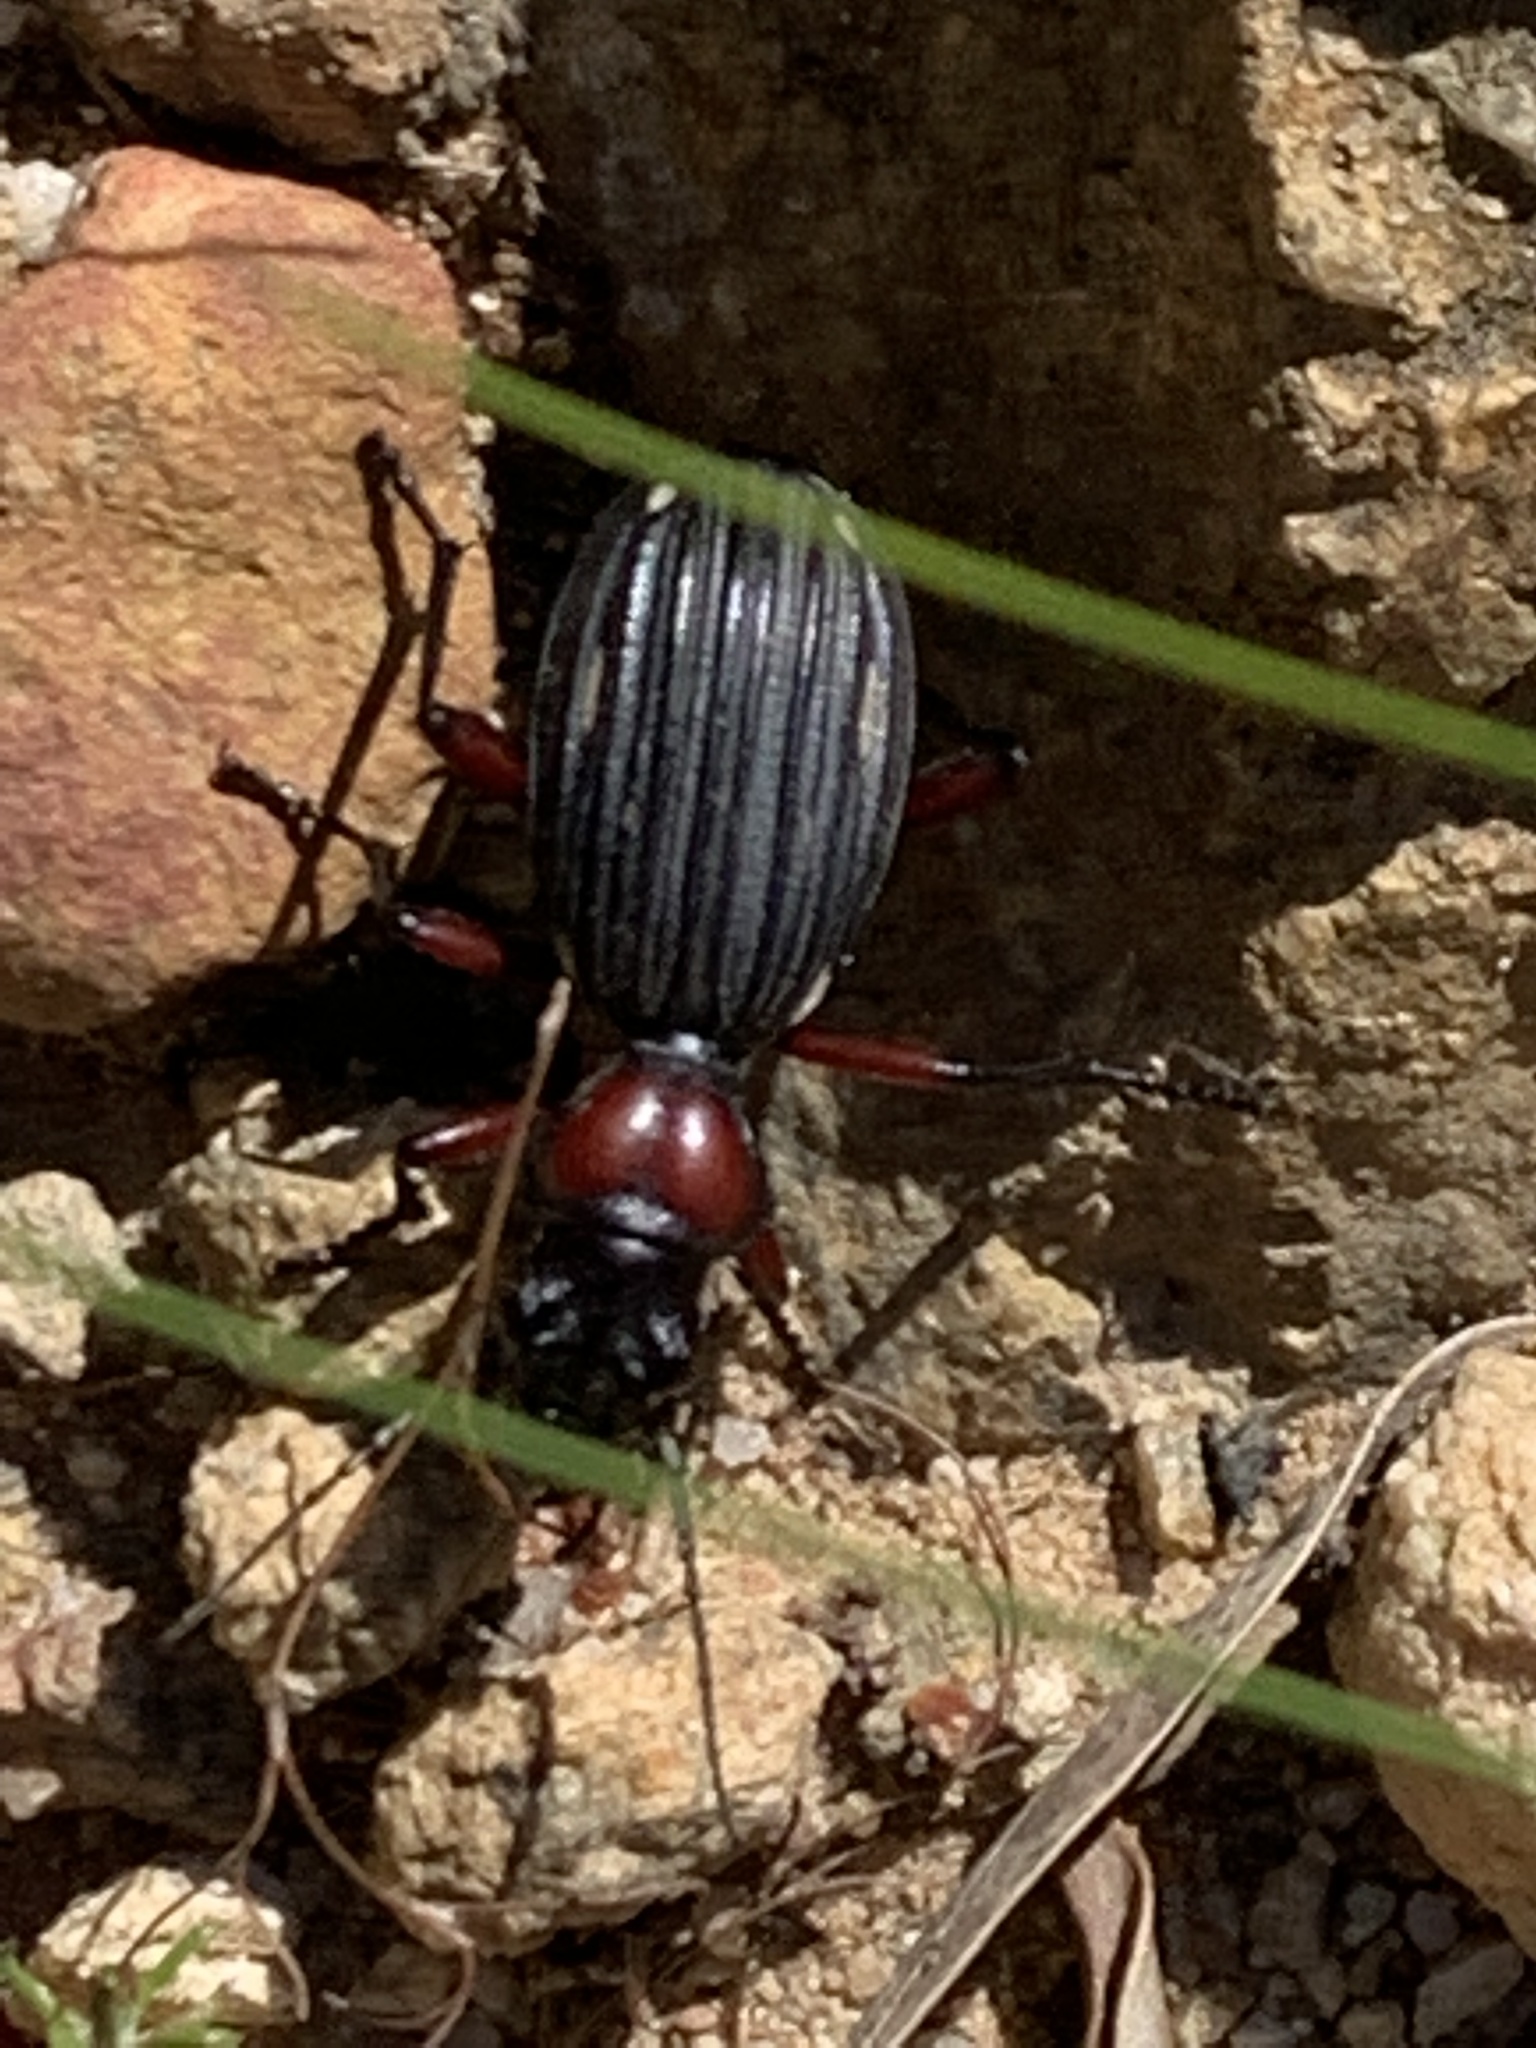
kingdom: Animalia
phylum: Arthropoda
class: Insecta
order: Coleoptera
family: Carabidae
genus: Anthia
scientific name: Anthia decemguttata
